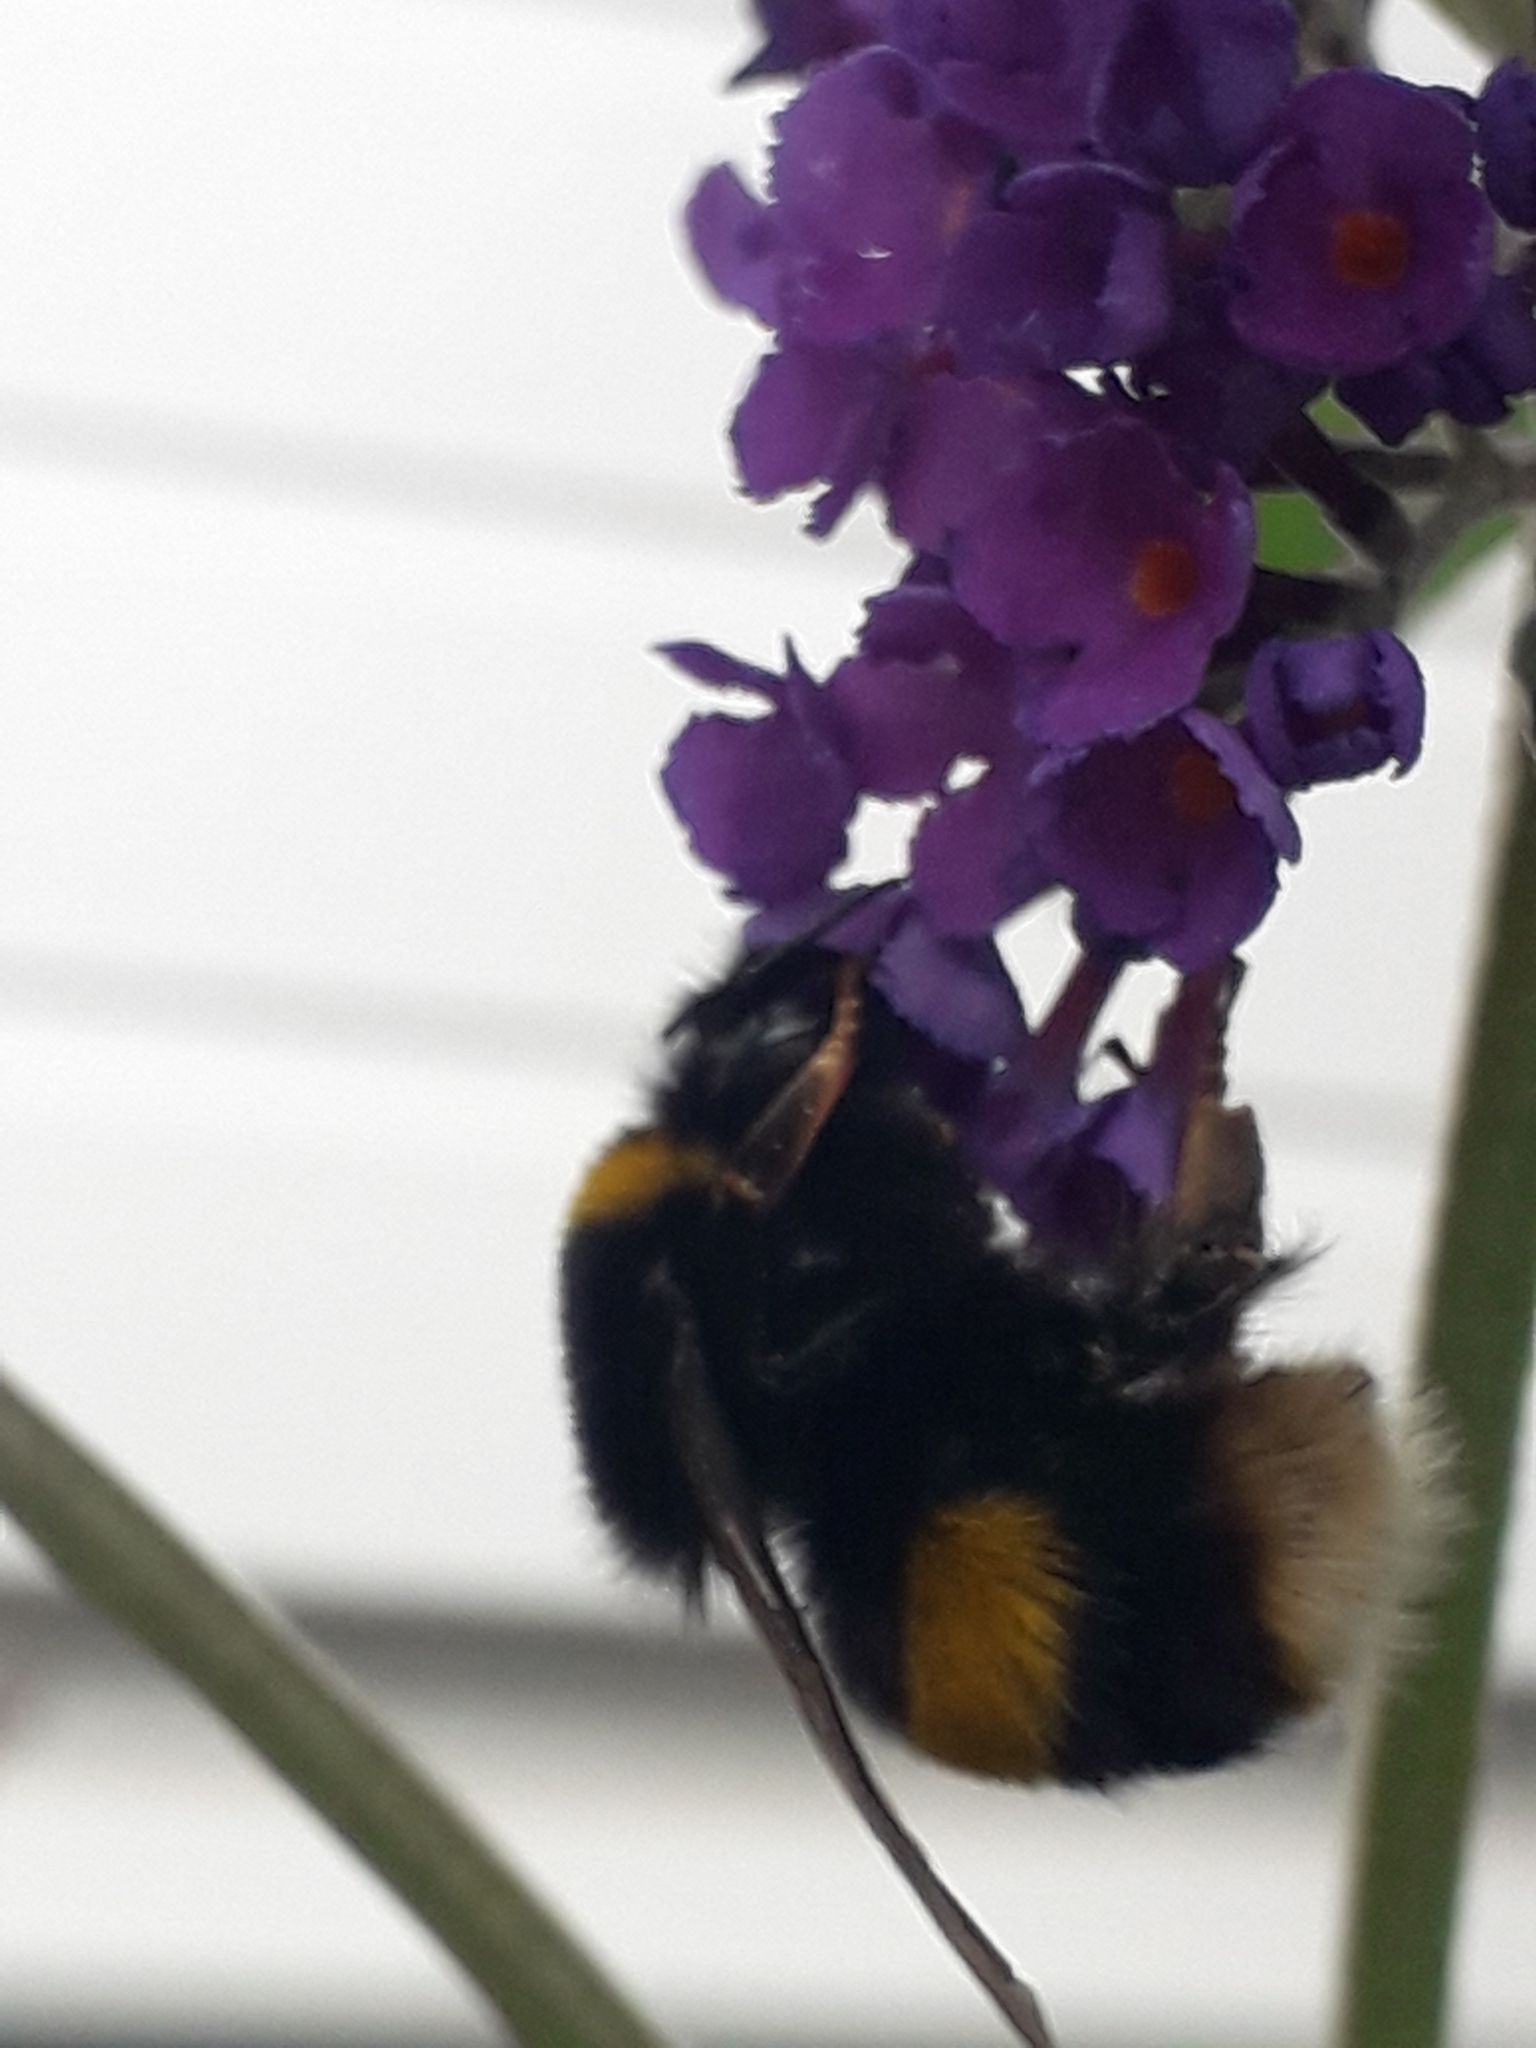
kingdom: Animalia
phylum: Arthropoda
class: Insecta
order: Hymenoptera
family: Apidae
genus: Bombus
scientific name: Bombus terrestris
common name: Buff-tailed bumblebee
